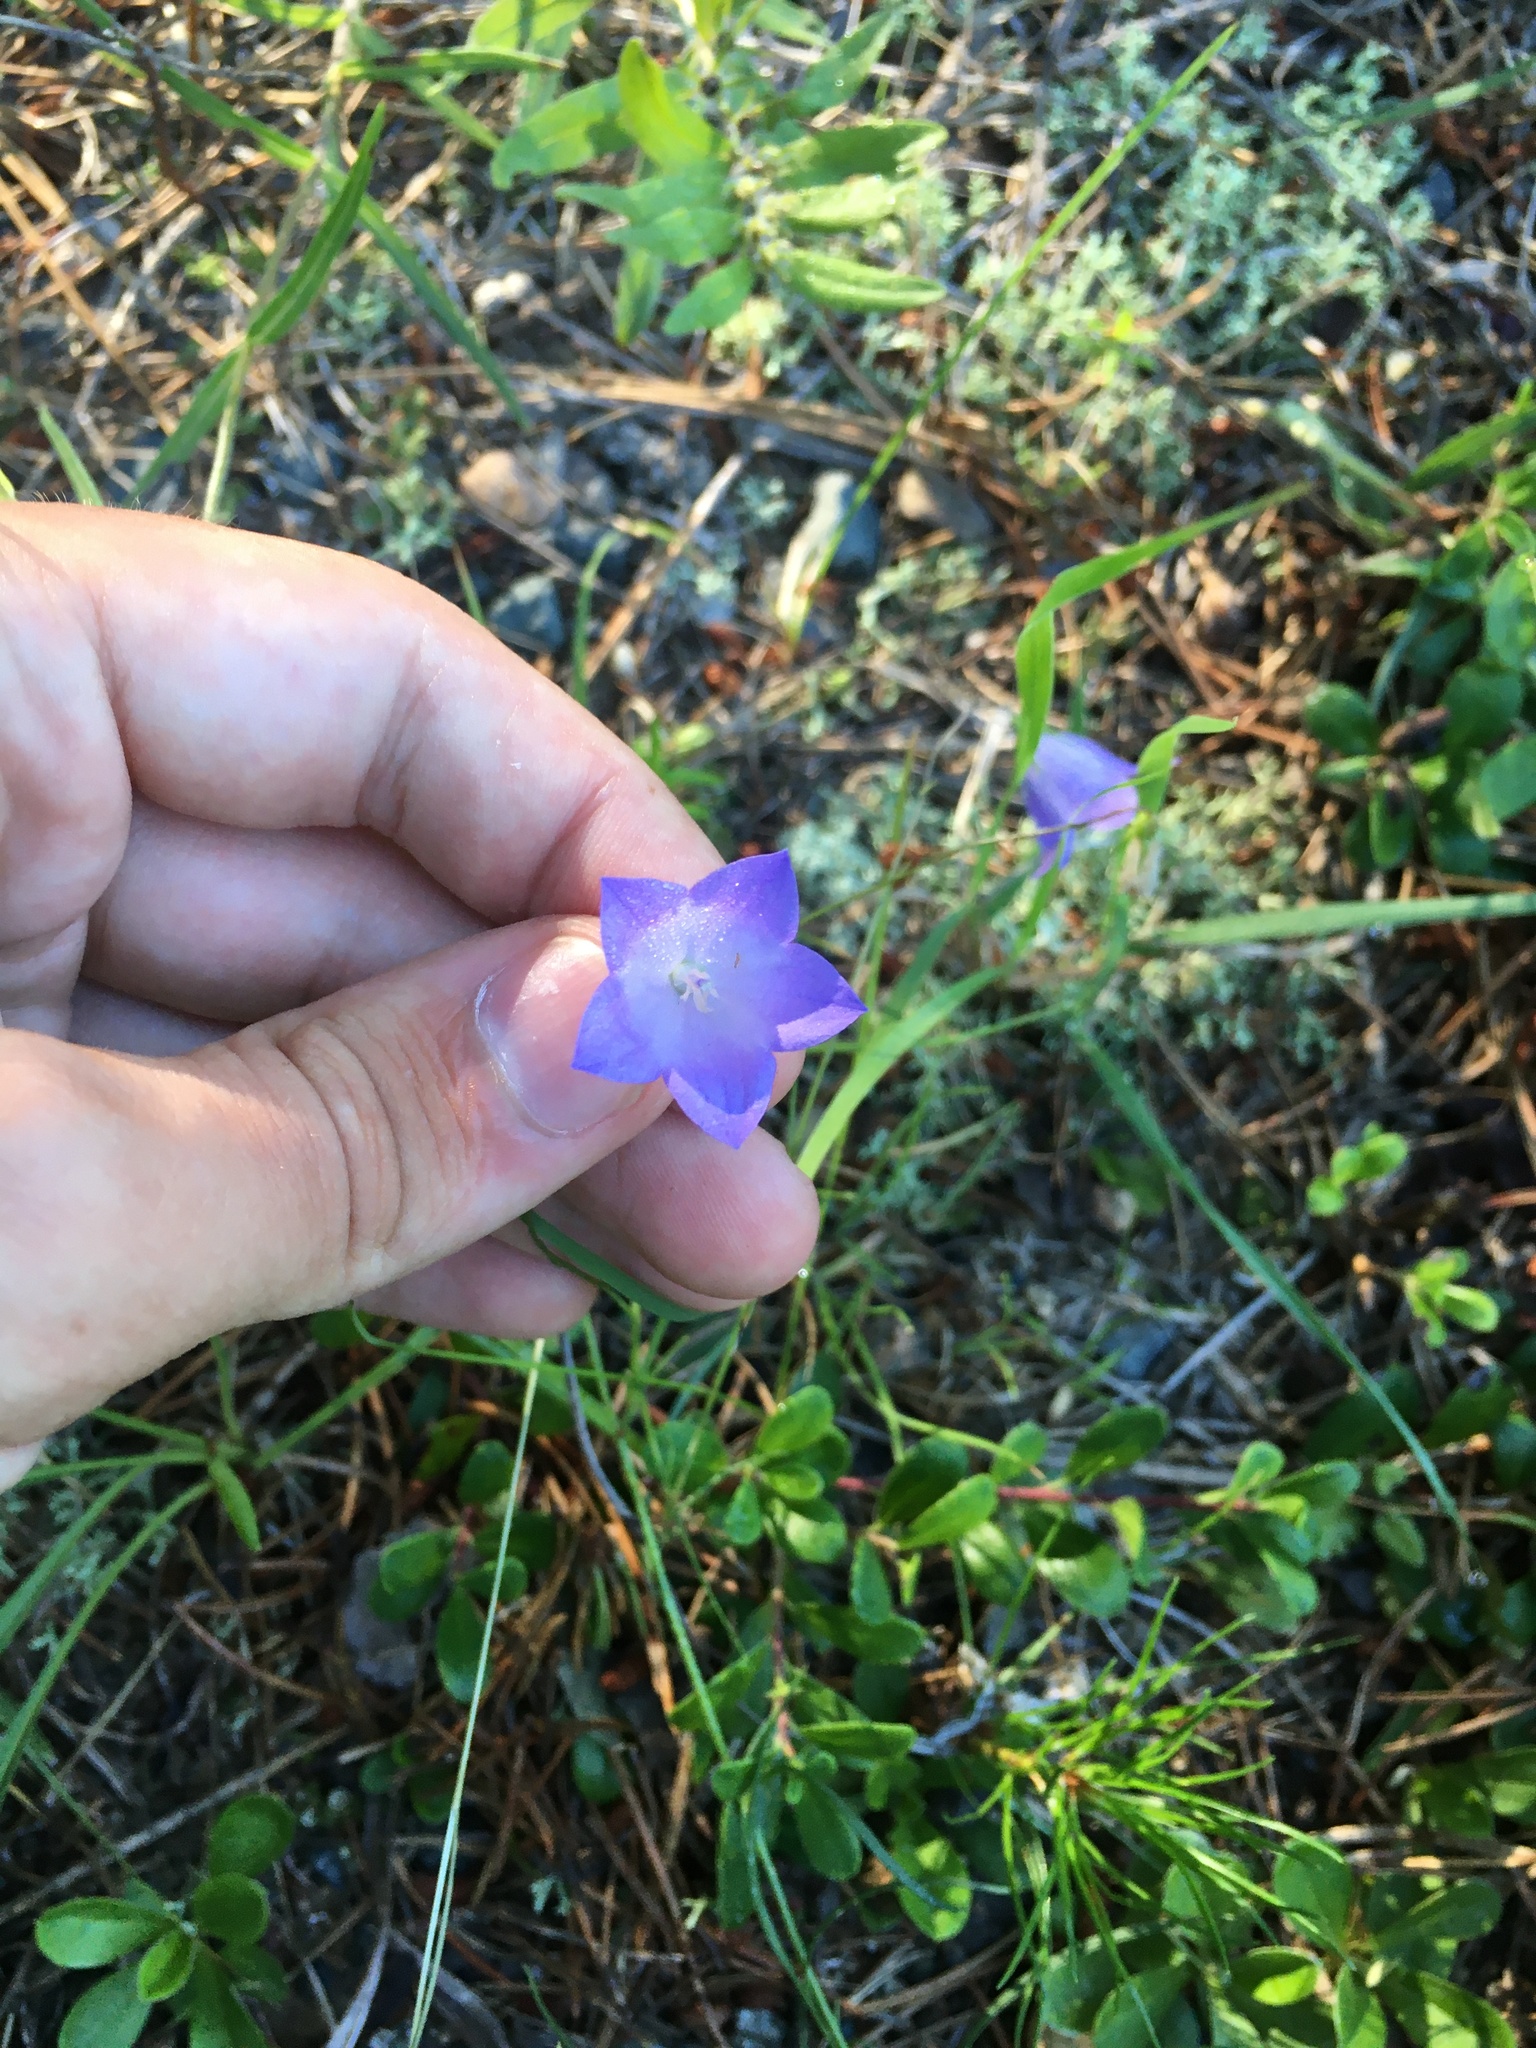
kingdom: Plantae
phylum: Tracheophyta
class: Magnoliopsida
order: Asterales
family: Campanulaceae
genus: Campanula
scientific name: Campanula intercedens
